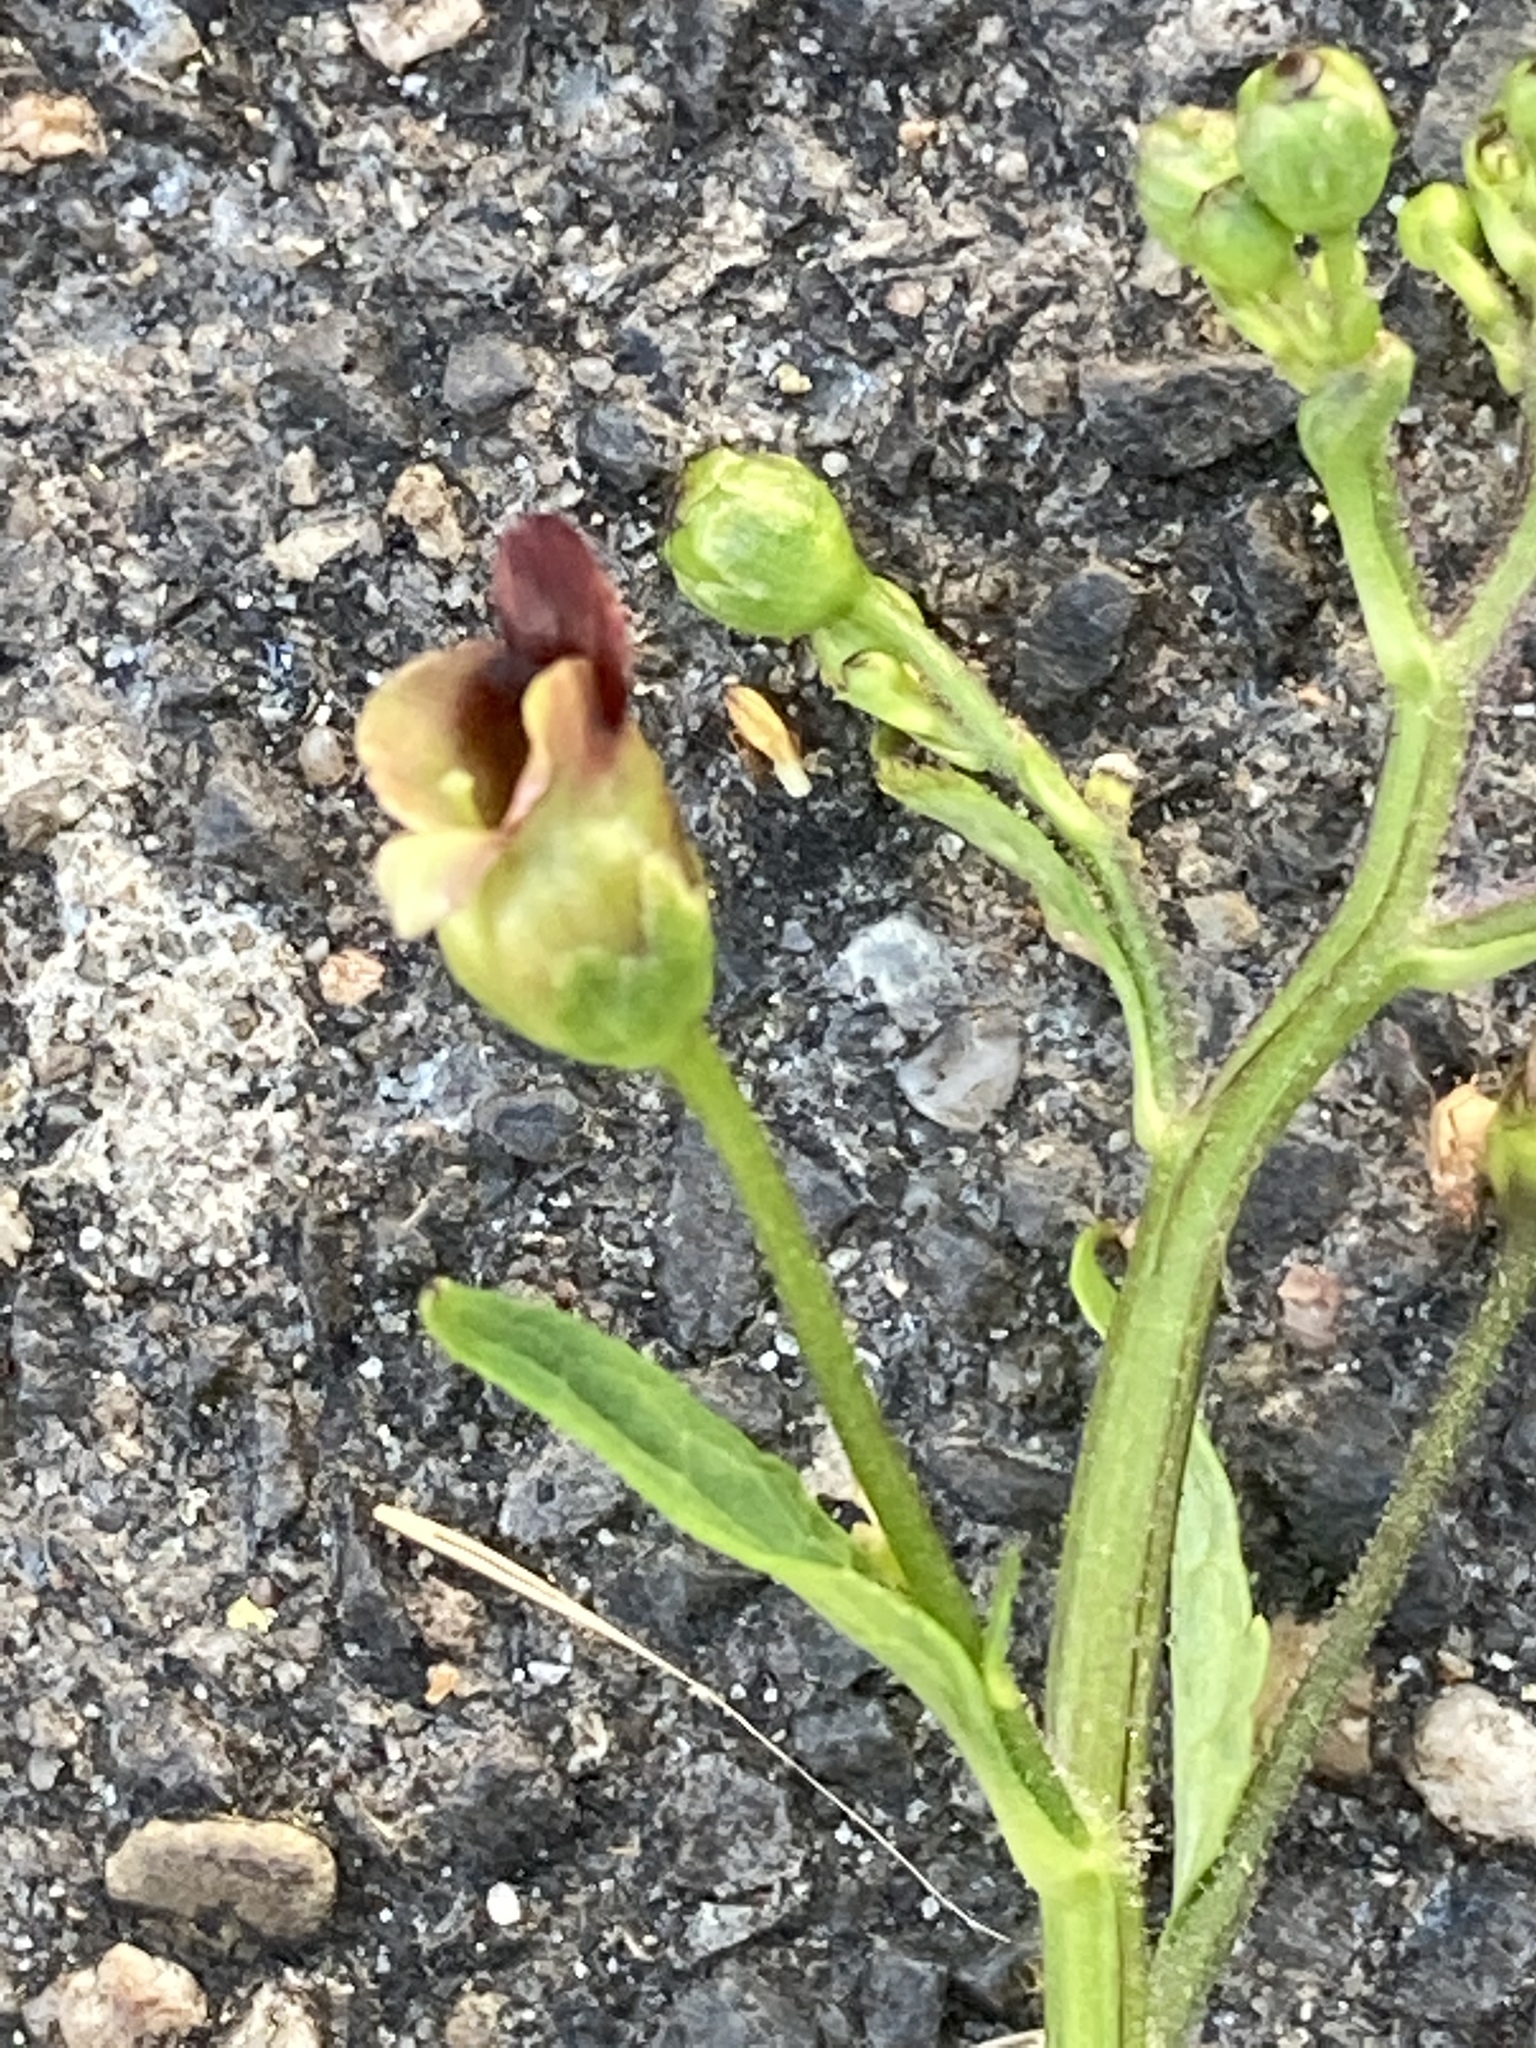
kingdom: Plantae
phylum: Tracheophyta
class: Magnoliopsida
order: Lamiales
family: Scrophulariaceae
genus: Scrophularia
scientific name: Scrophularia nodosa
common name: Common figwort
